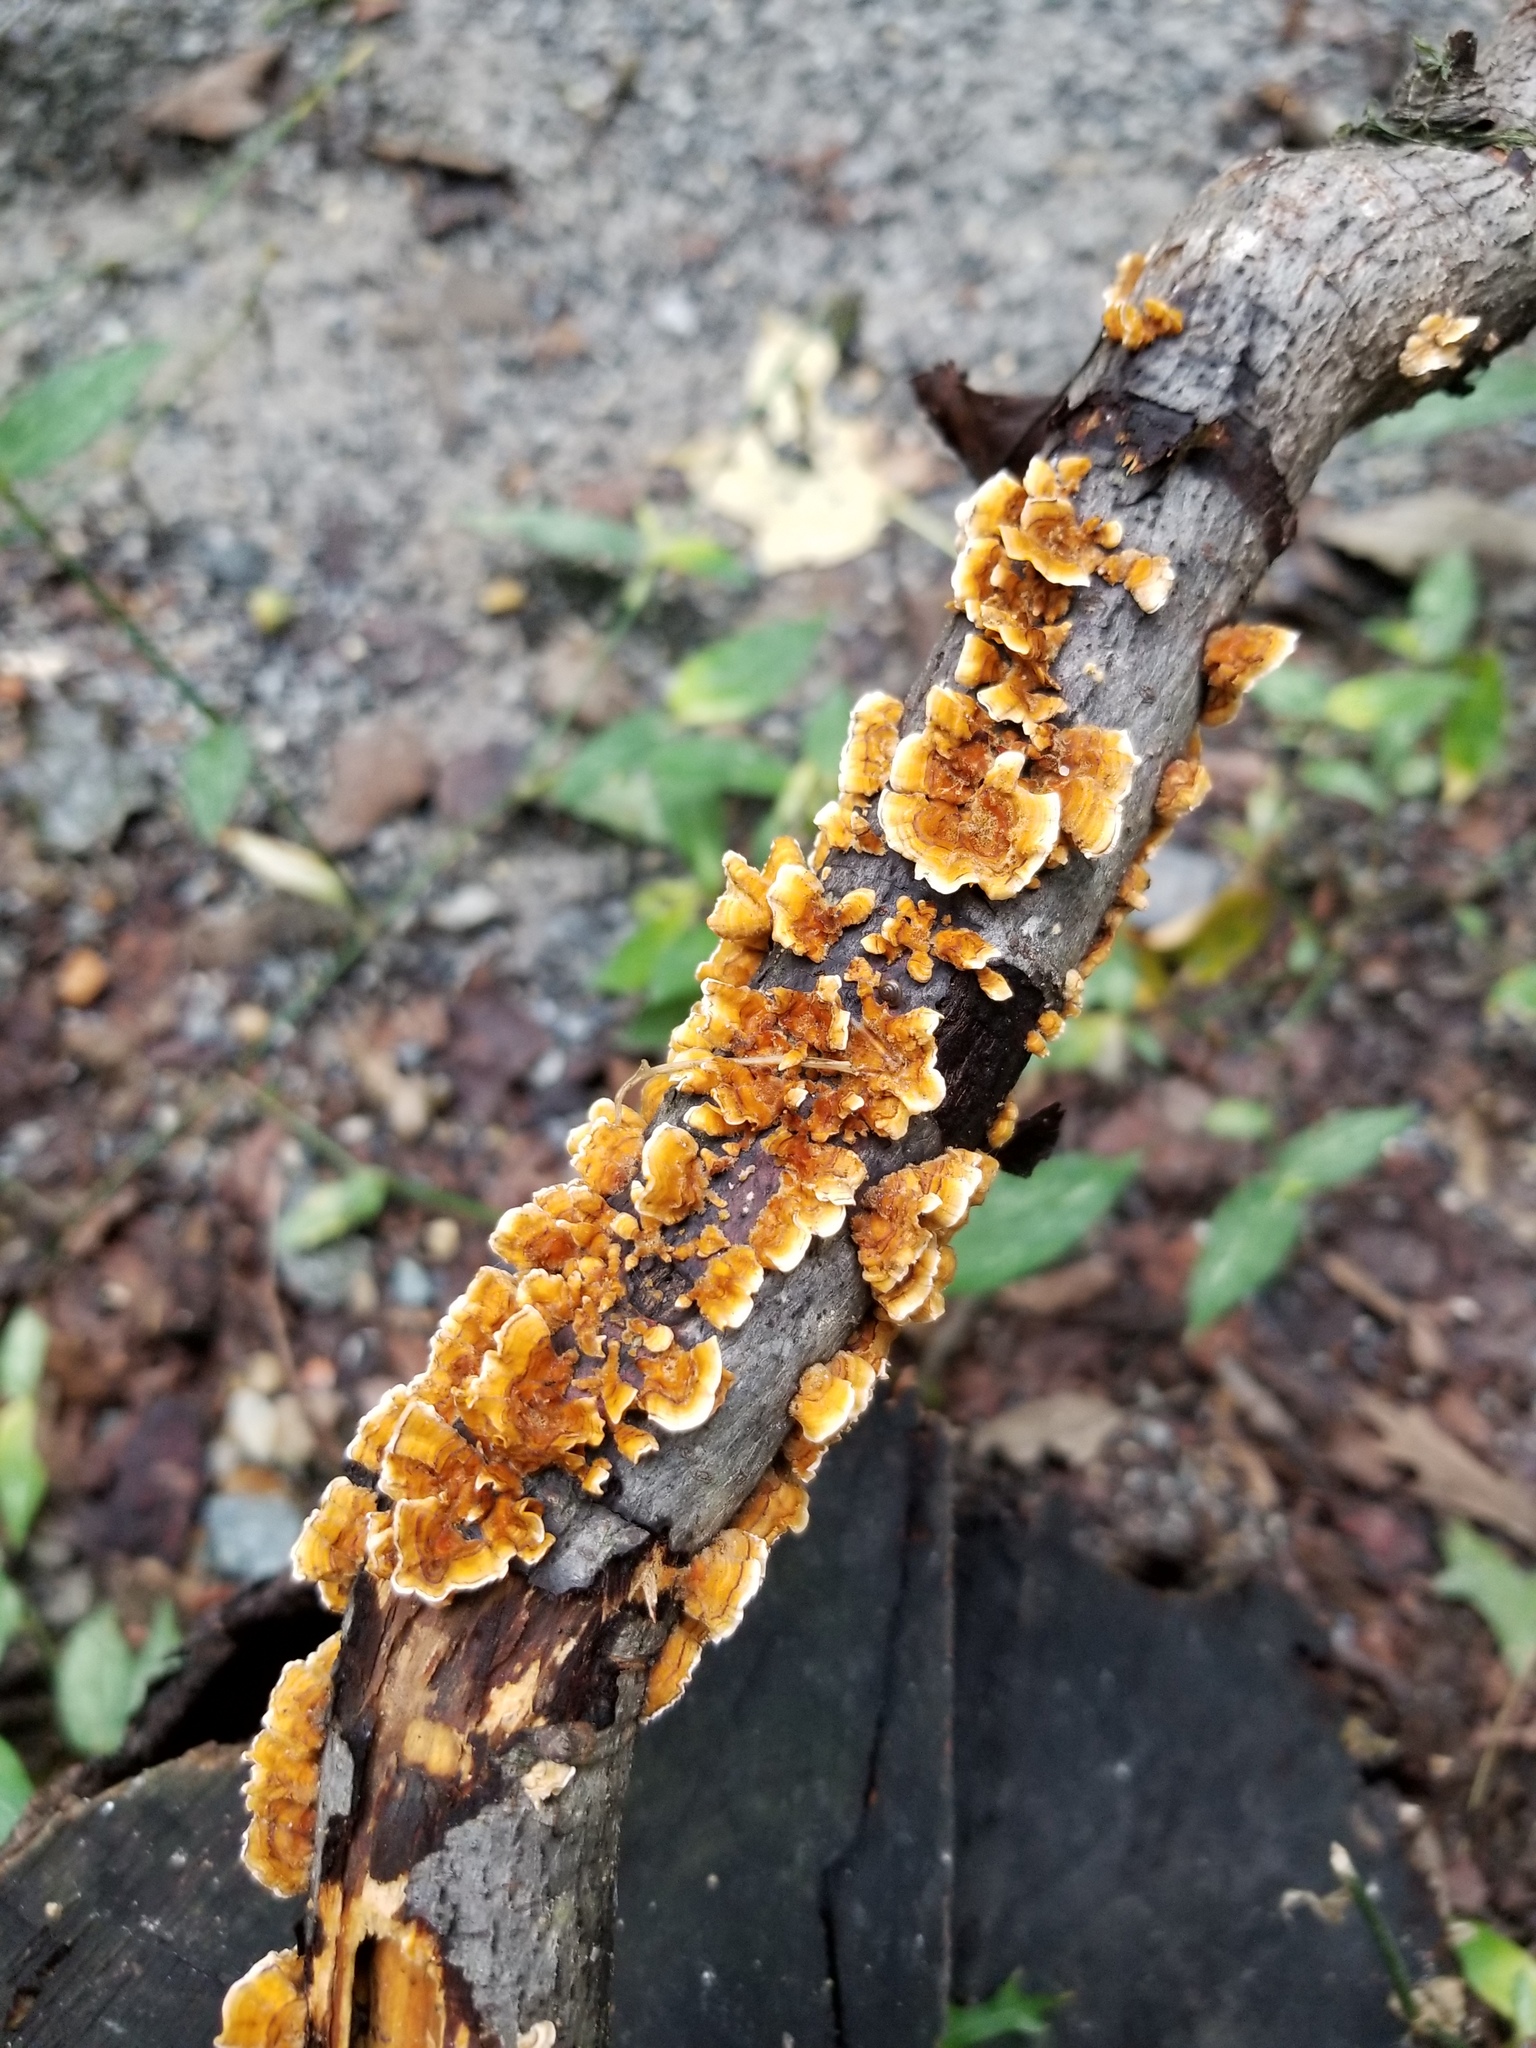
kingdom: Fungi
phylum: Basidiomycota
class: Agaricomycetes
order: Russulales
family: Stereaceae
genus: Stereum
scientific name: Stereum complicatum
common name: Crowded parchment
